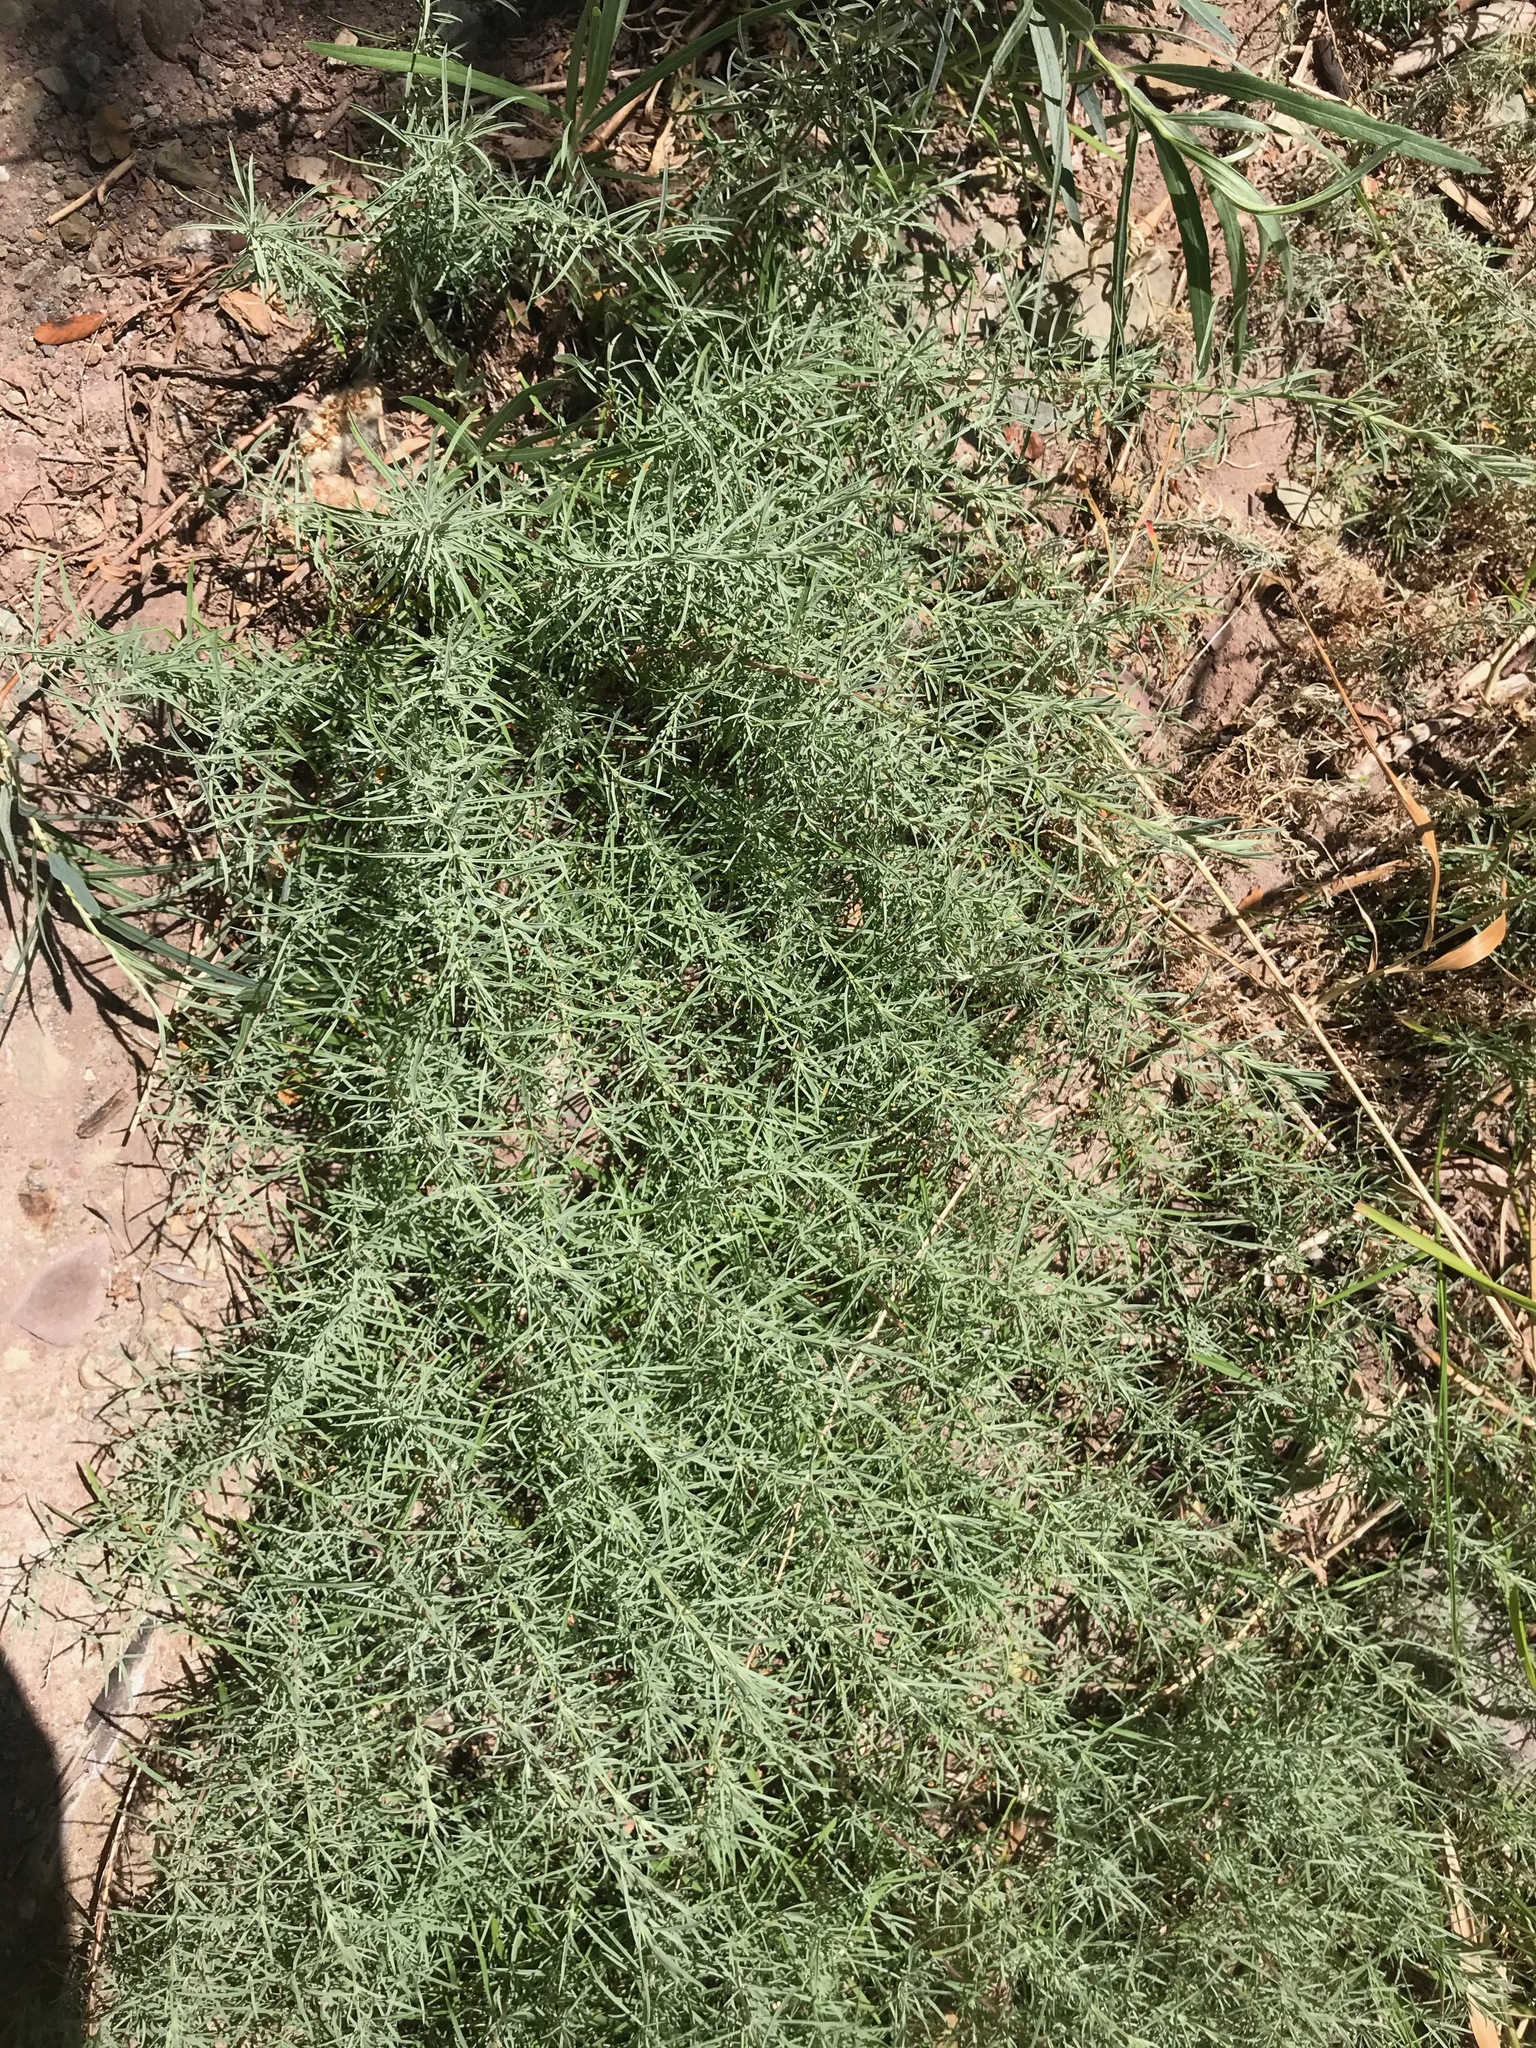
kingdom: Plantae
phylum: Tracheophyta
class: Magnoliopsida
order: Myrtales
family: Onagraceae
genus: Epilobium
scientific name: Epilobium canum
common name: California-fuchsia
